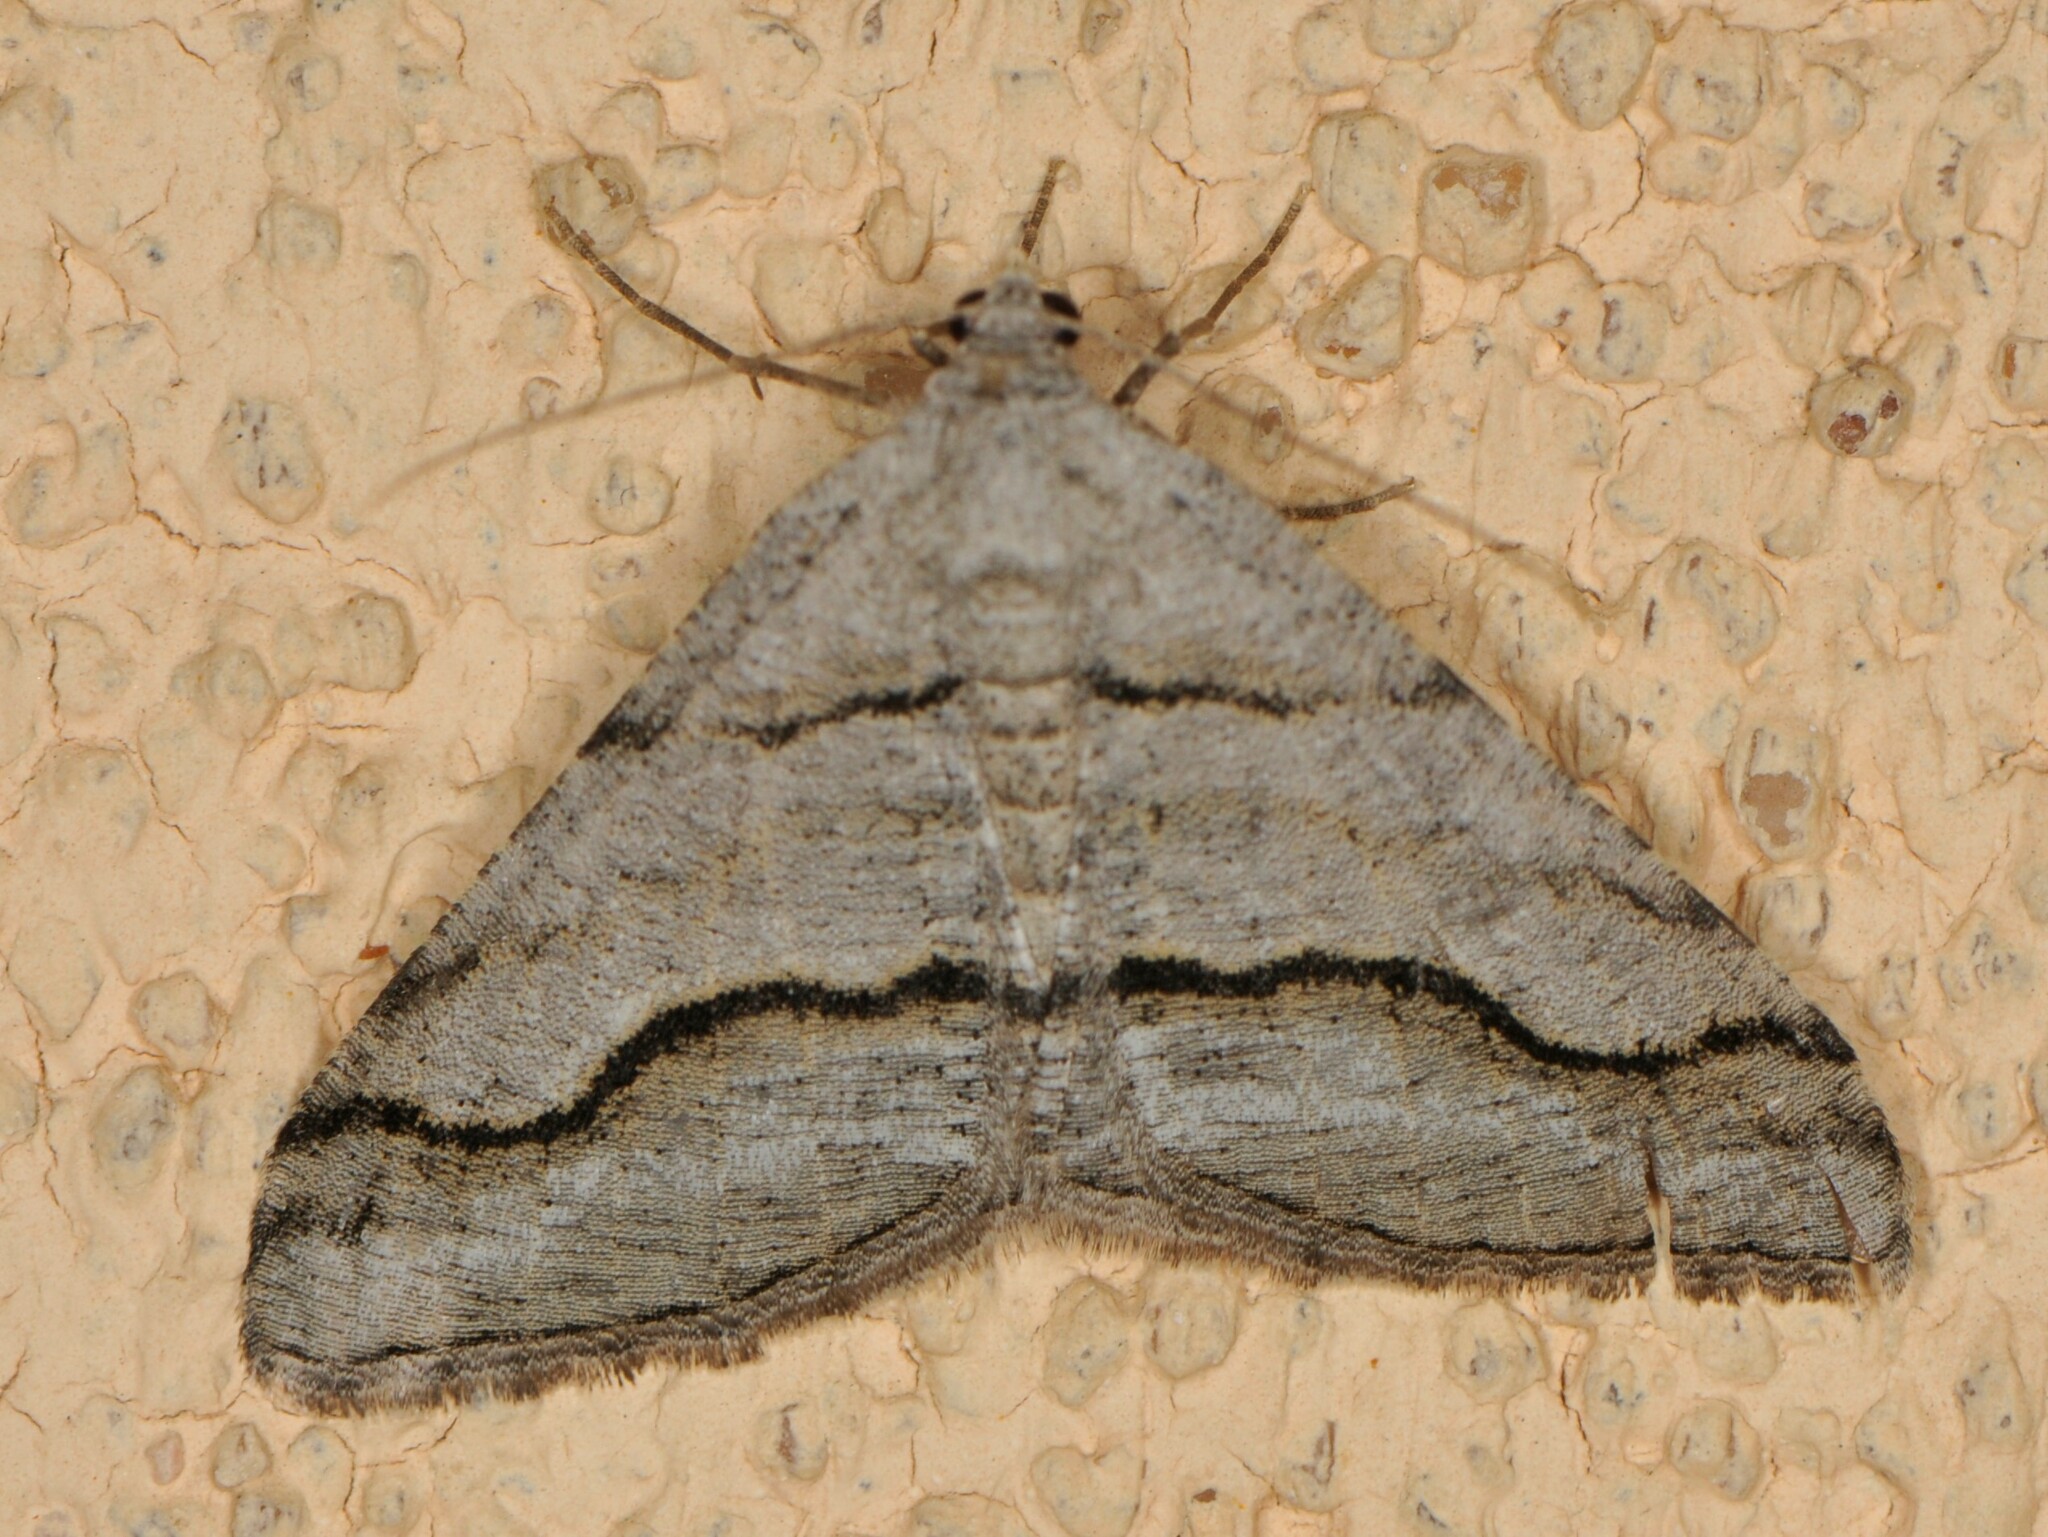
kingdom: Animalia
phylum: Arthropoda
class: Insecta
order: Lepidoptera
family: Geometridae
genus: Digrammia
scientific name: Digrammia excurvata
